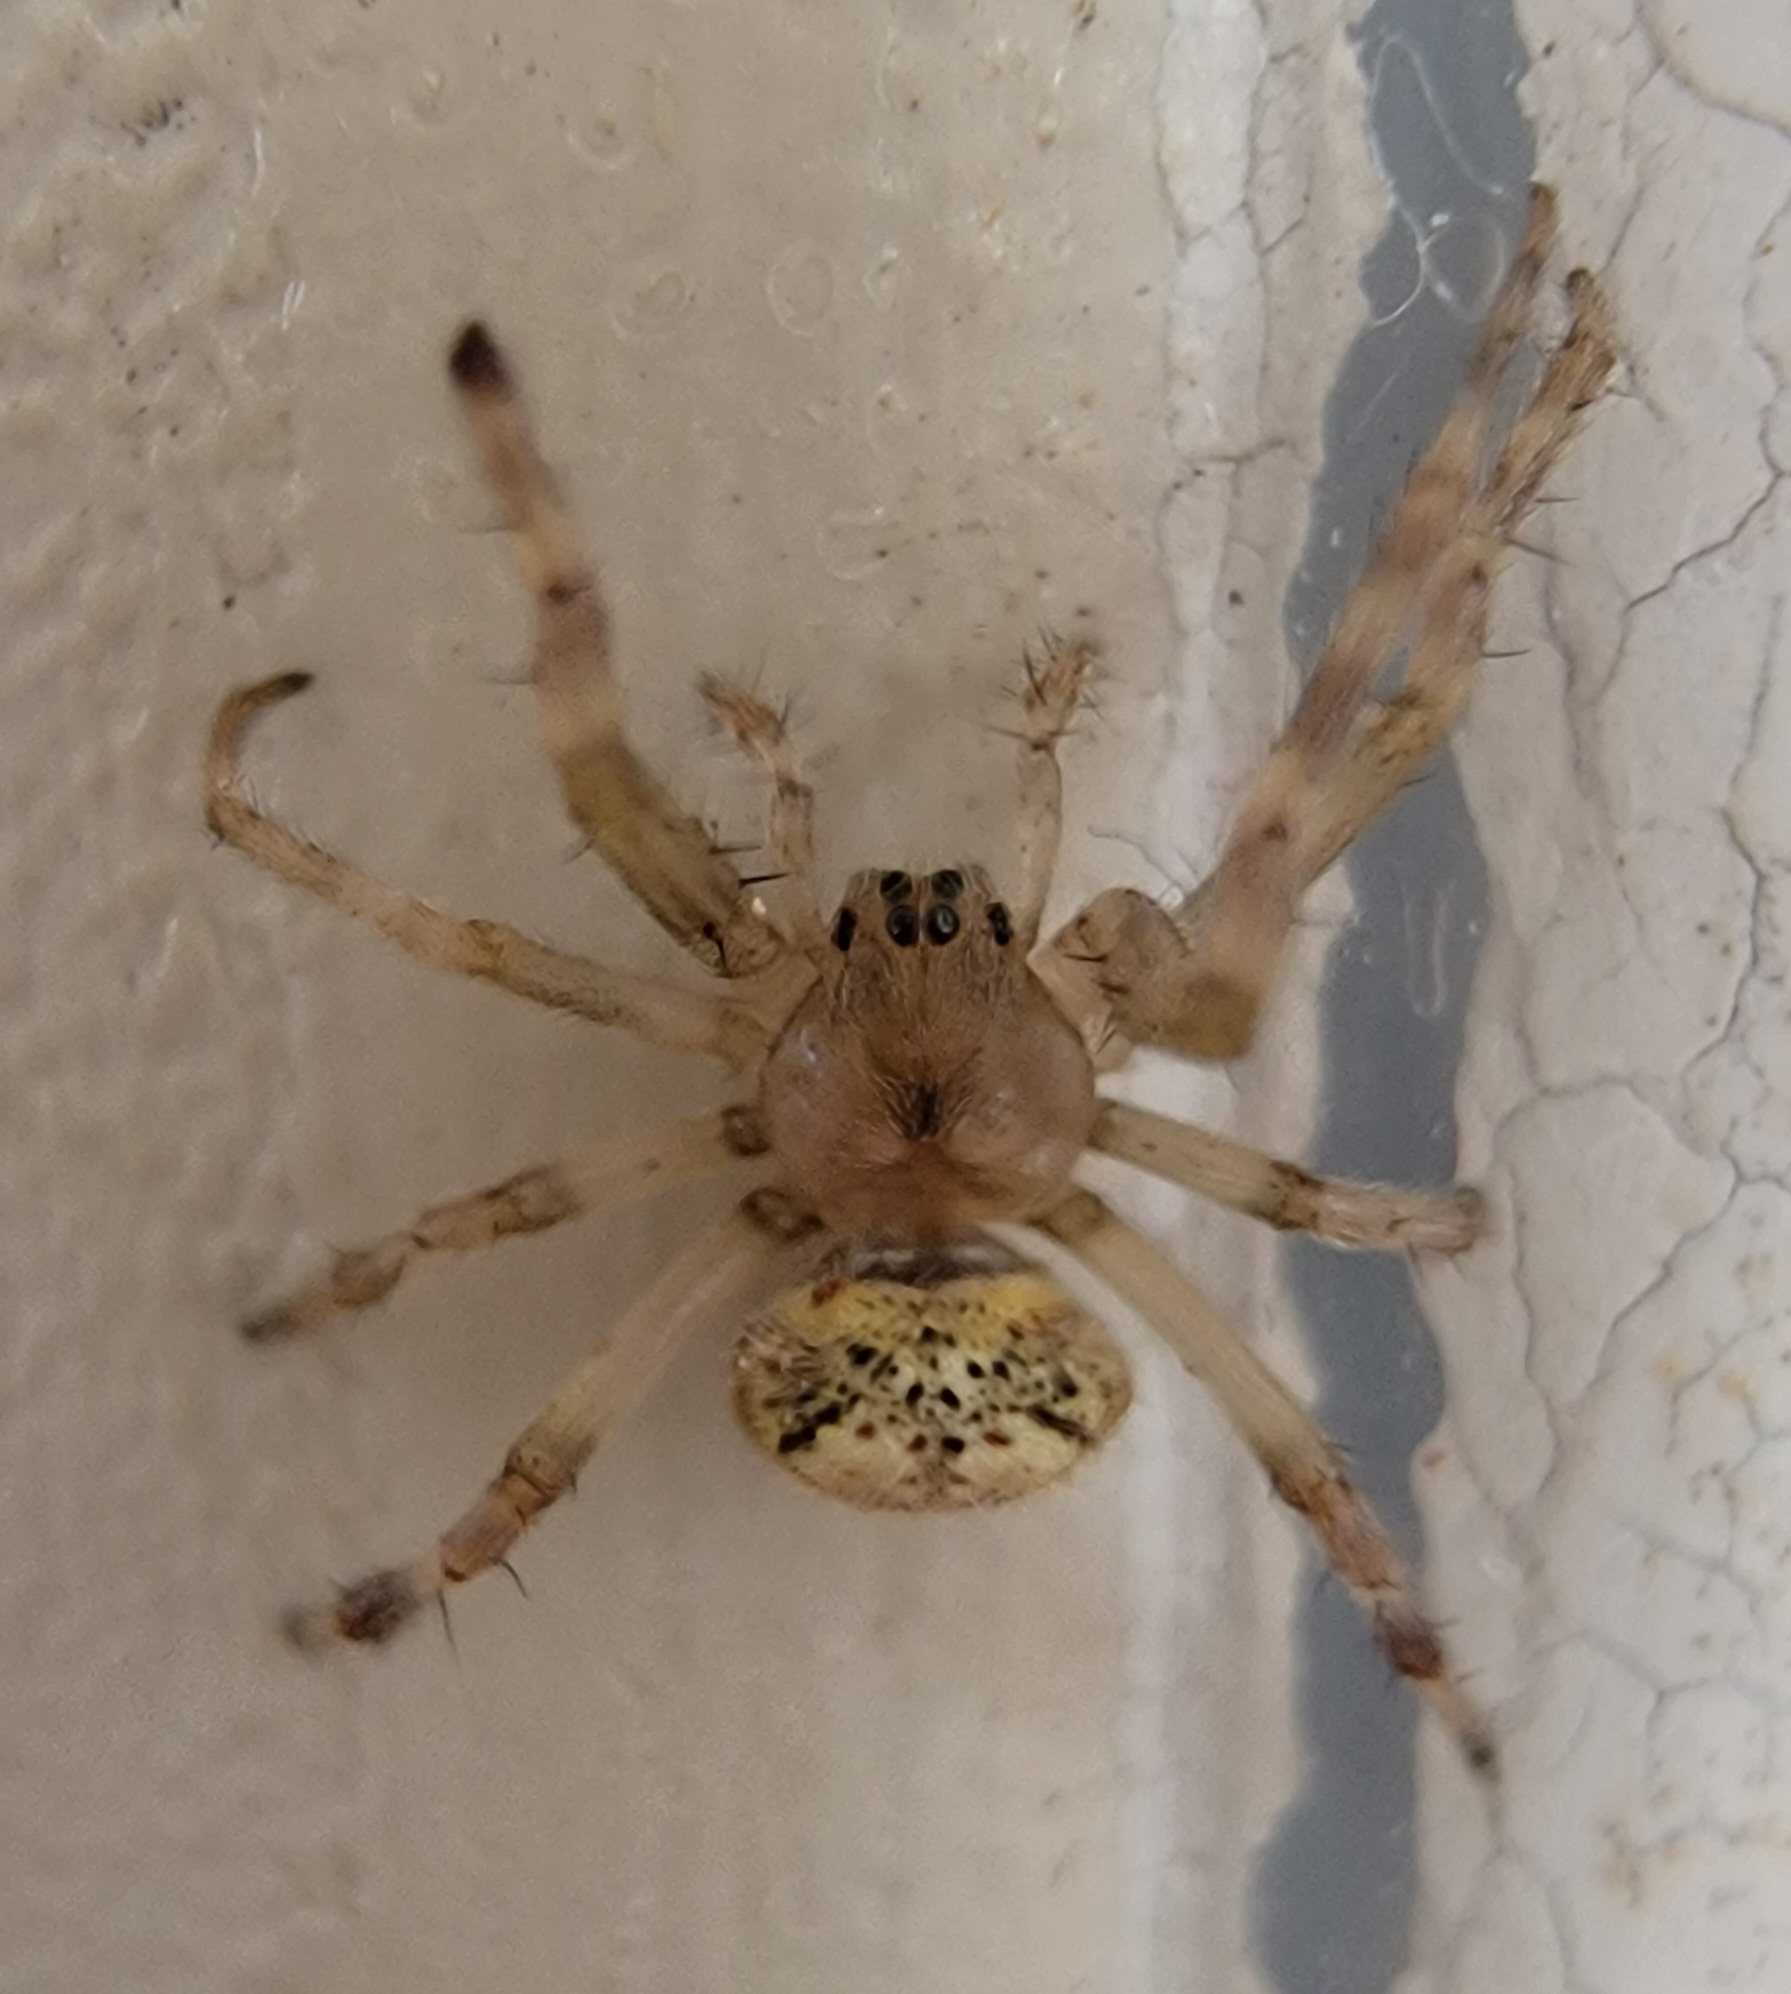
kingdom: Animalia
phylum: Arthropoda
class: Arachnida
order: Araneae
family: Araneidae
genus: Araneus
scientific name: Araneus pegnia
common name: Orb weavers
